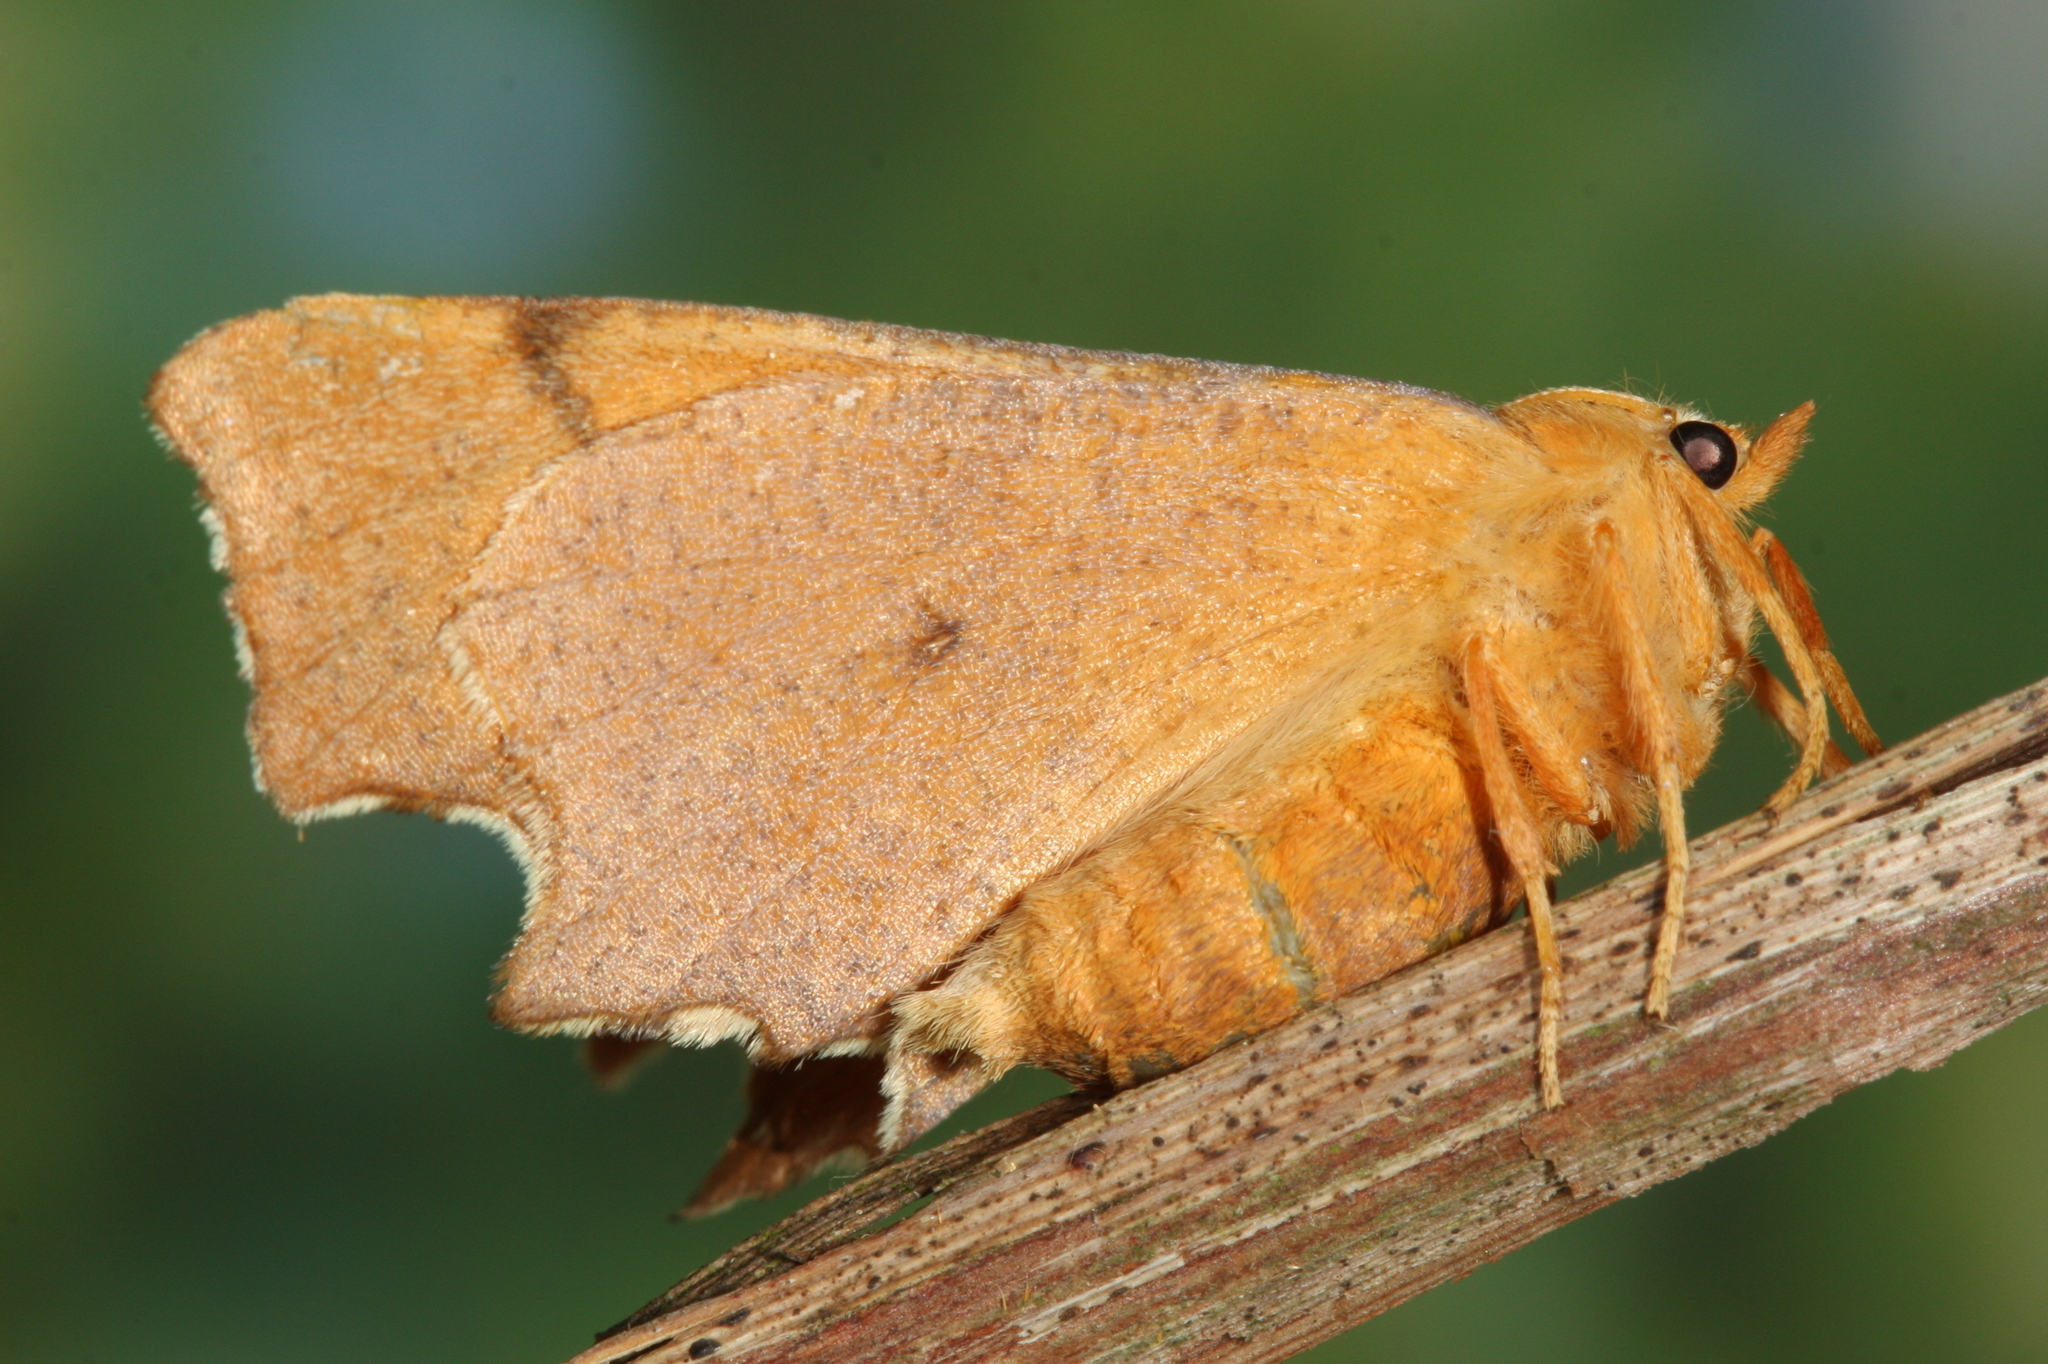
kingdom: Animalia
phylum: Arthropoda
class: Insecta
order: Lepidoptera
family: Geometridae
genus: Ennomos
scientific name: Ennomos erosaria
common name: September thorn
